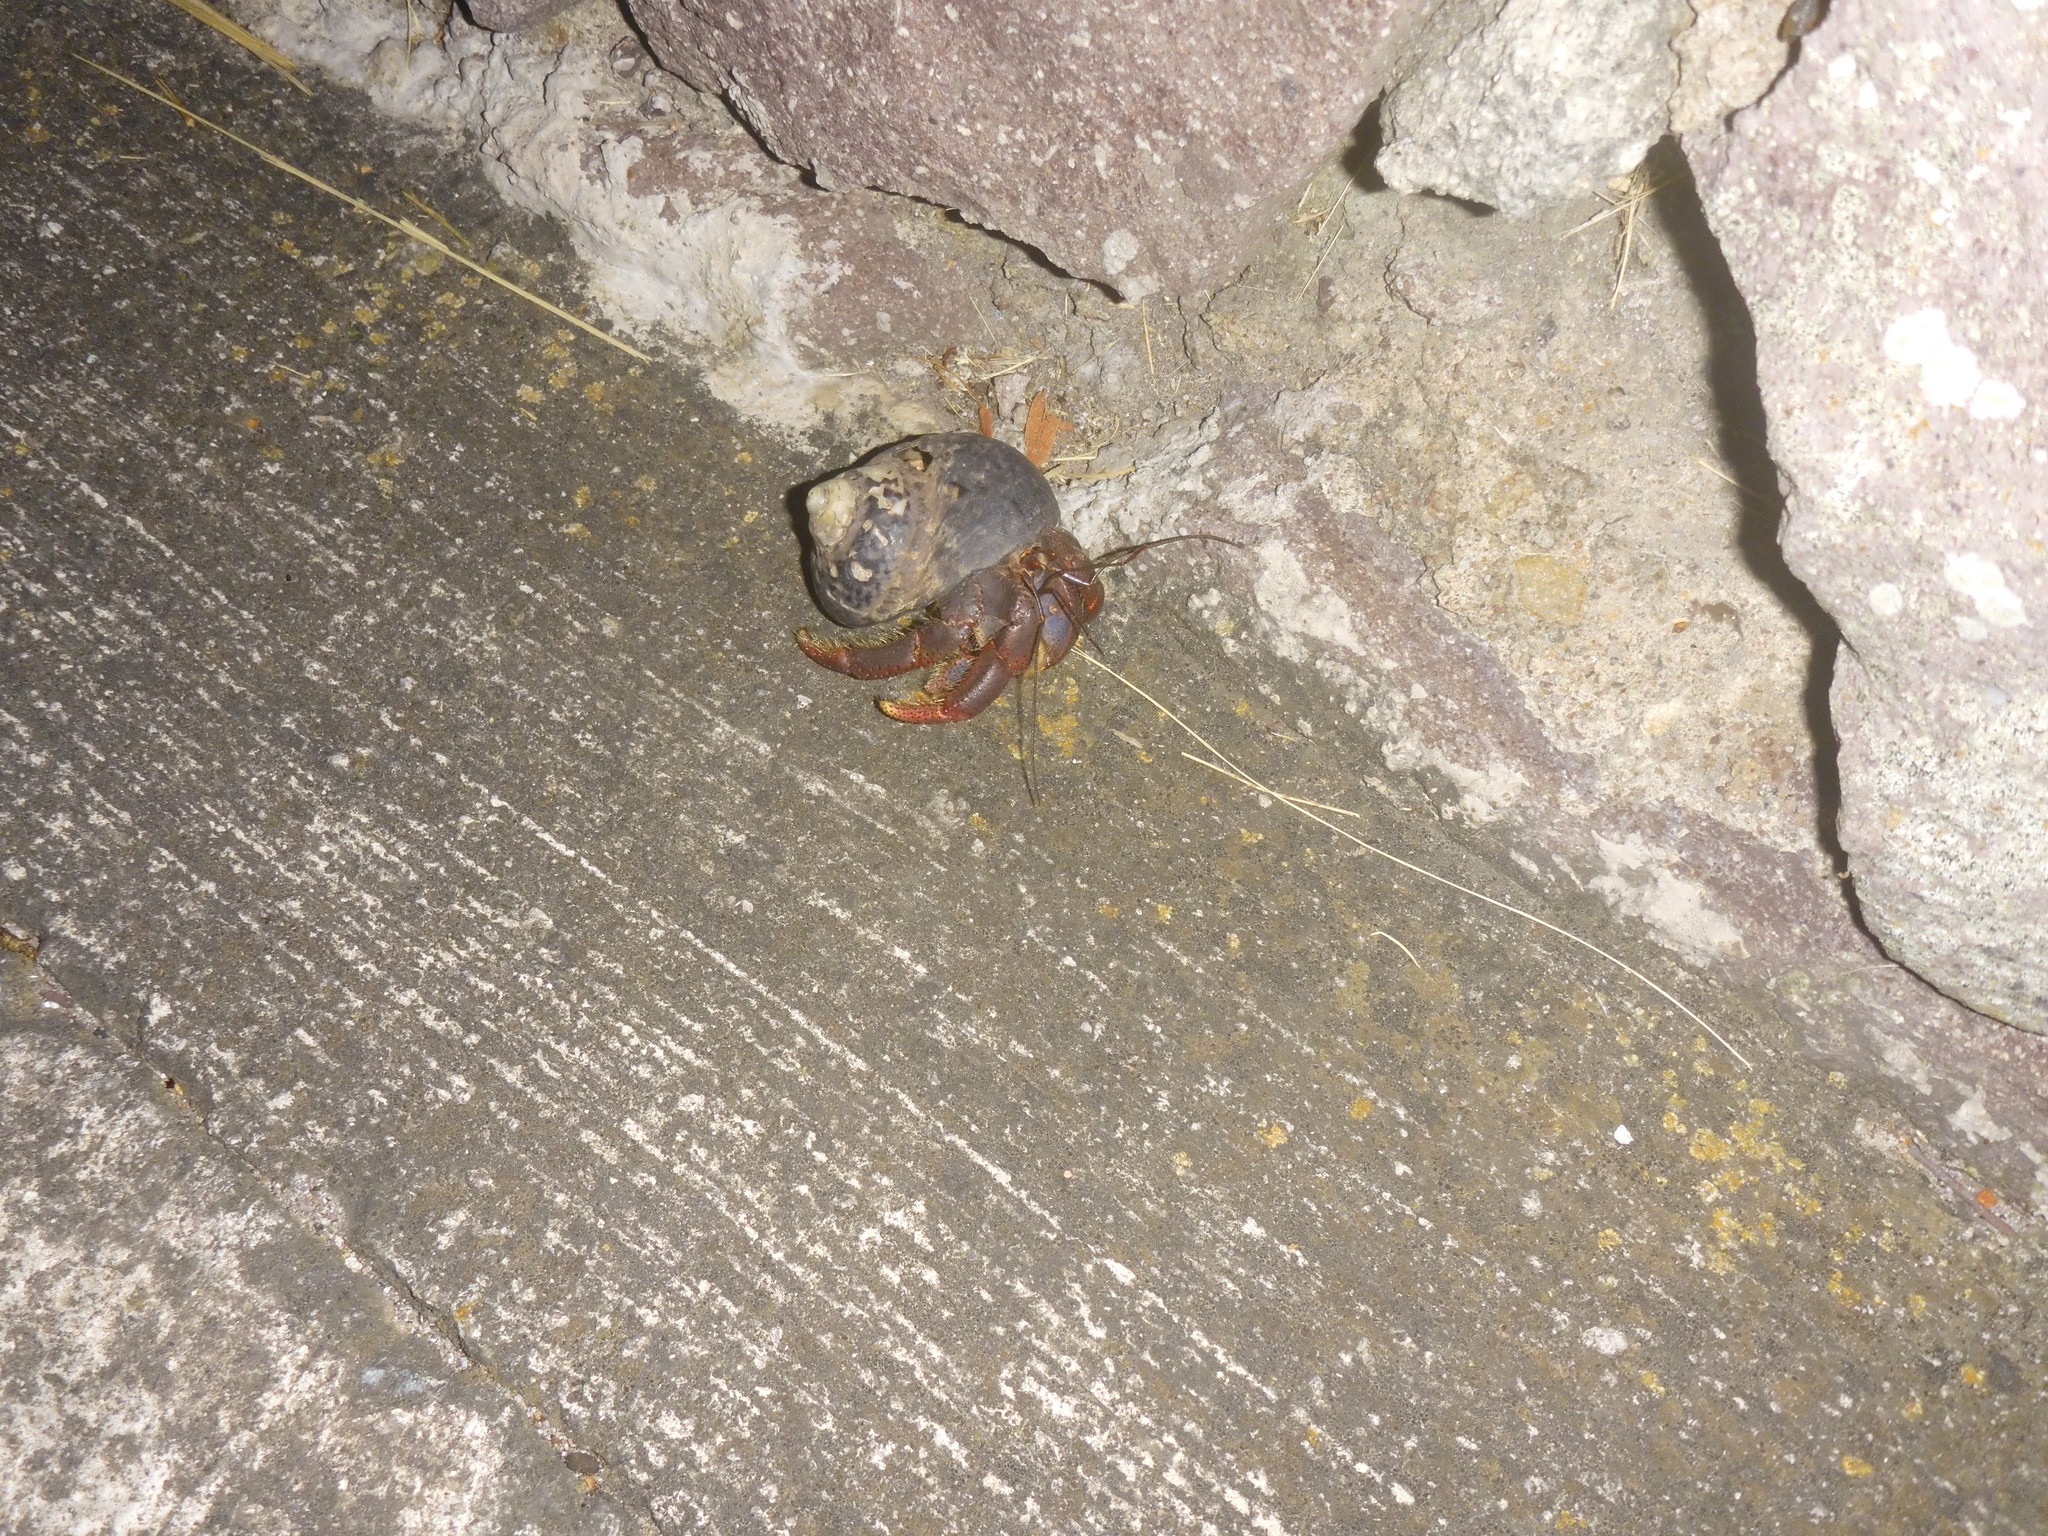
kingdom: Animalia
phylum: Arthropoda
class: Malacostraca
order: Decapoda
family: Coenobitidae
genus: Coenobita
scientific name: Coenobita clypeatus
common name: Caribbean hermit crab
